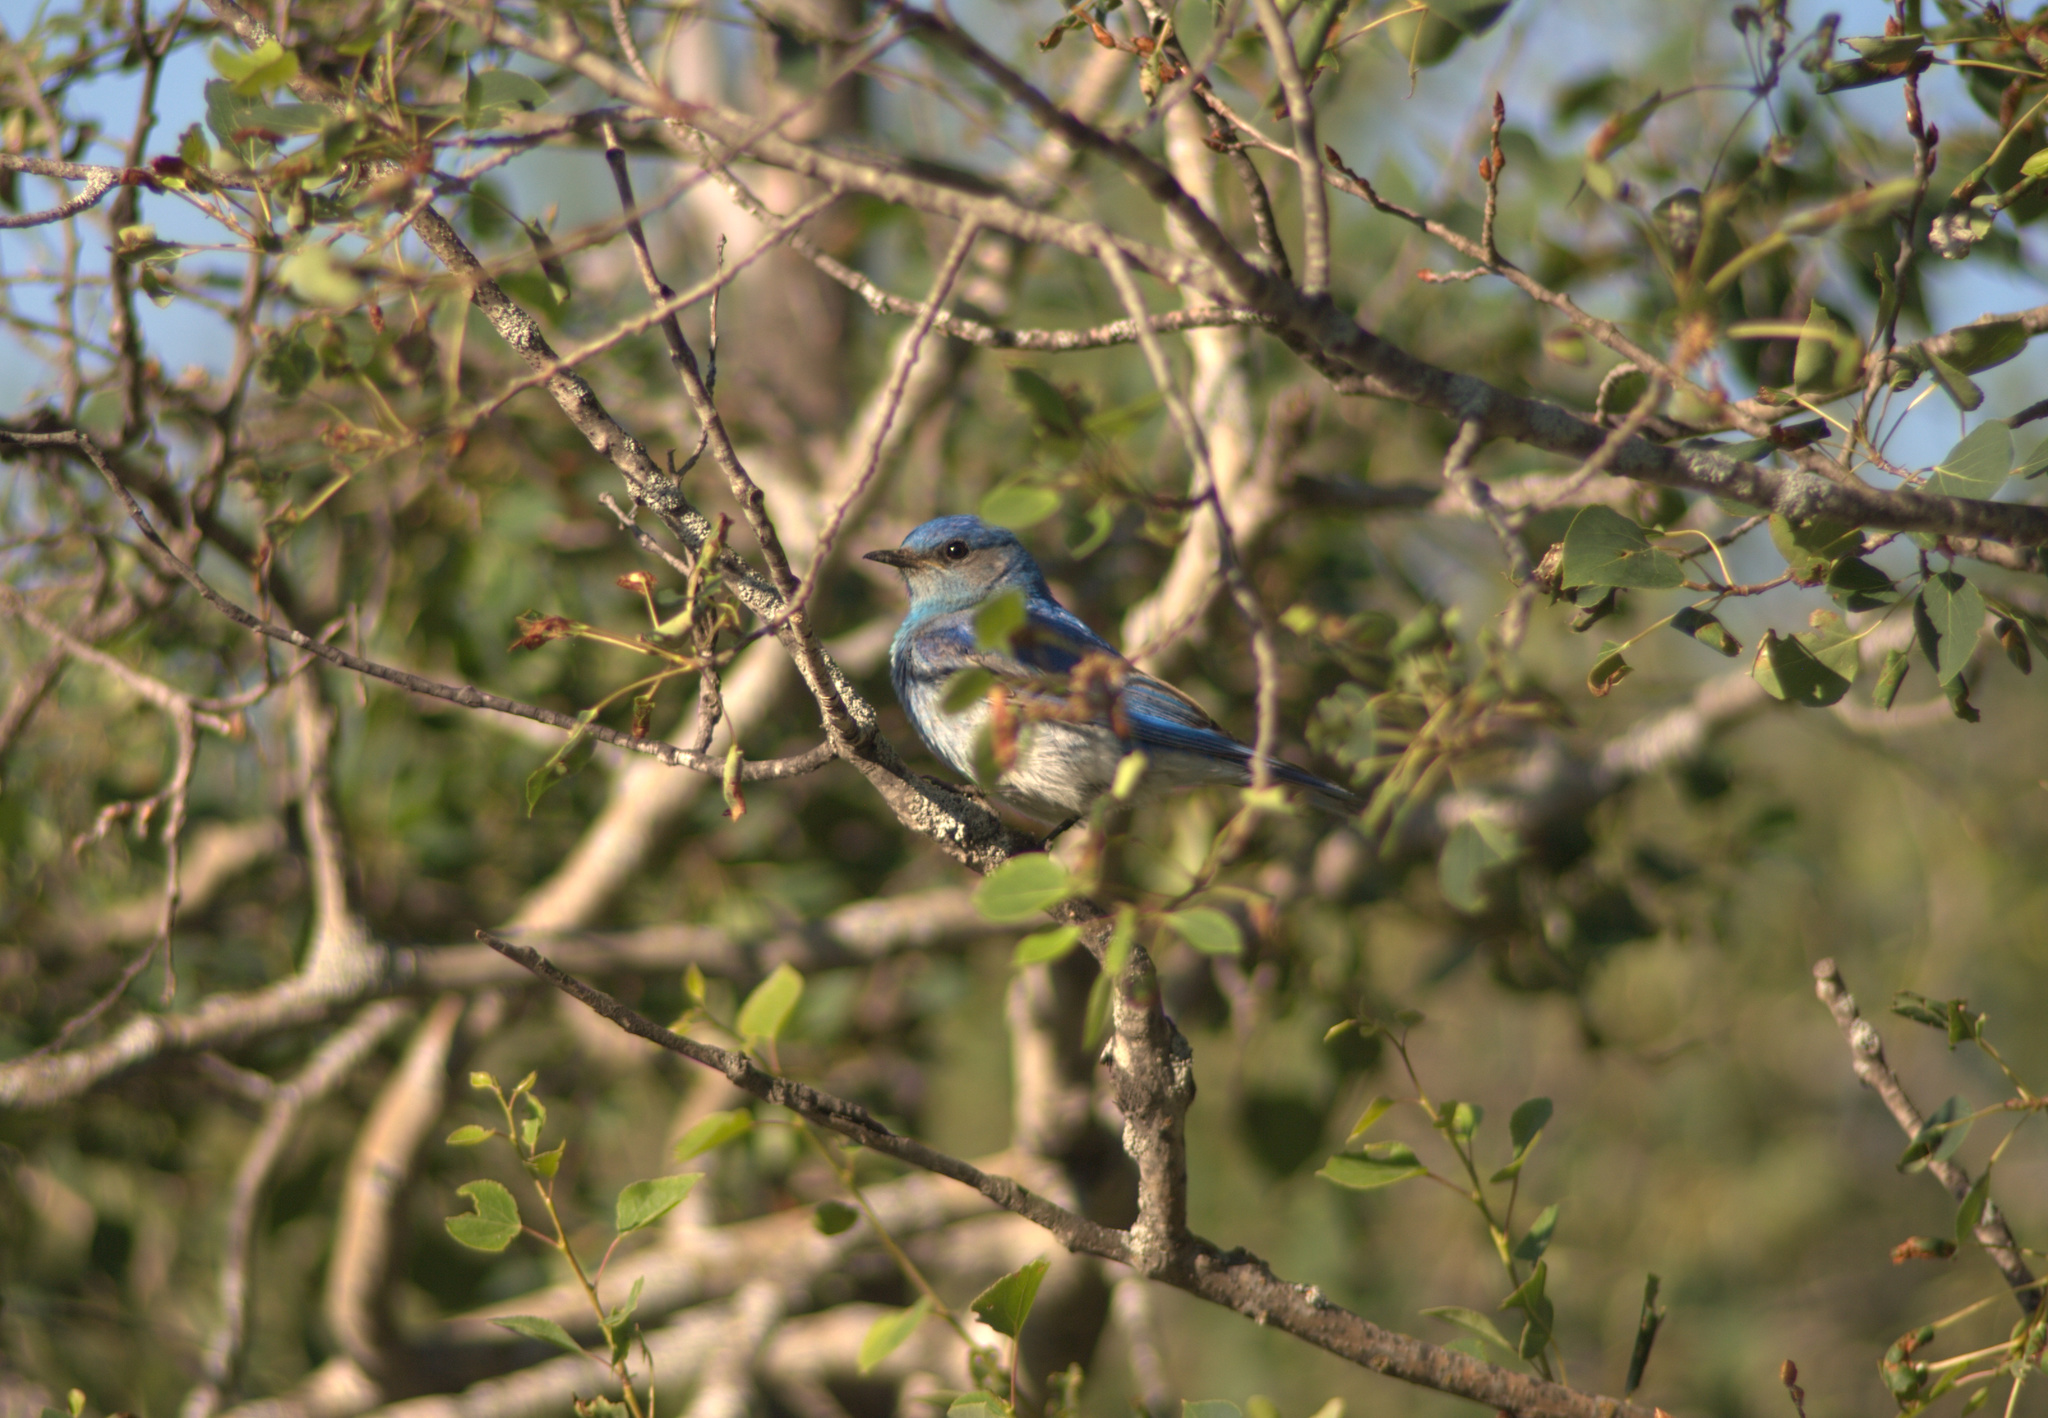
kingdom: Animalia
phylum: Chordata
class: Aves
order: Passeriformes
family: Turdidae
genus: Sialia
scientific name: Sialia currucoides
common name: Mountain bluebird
